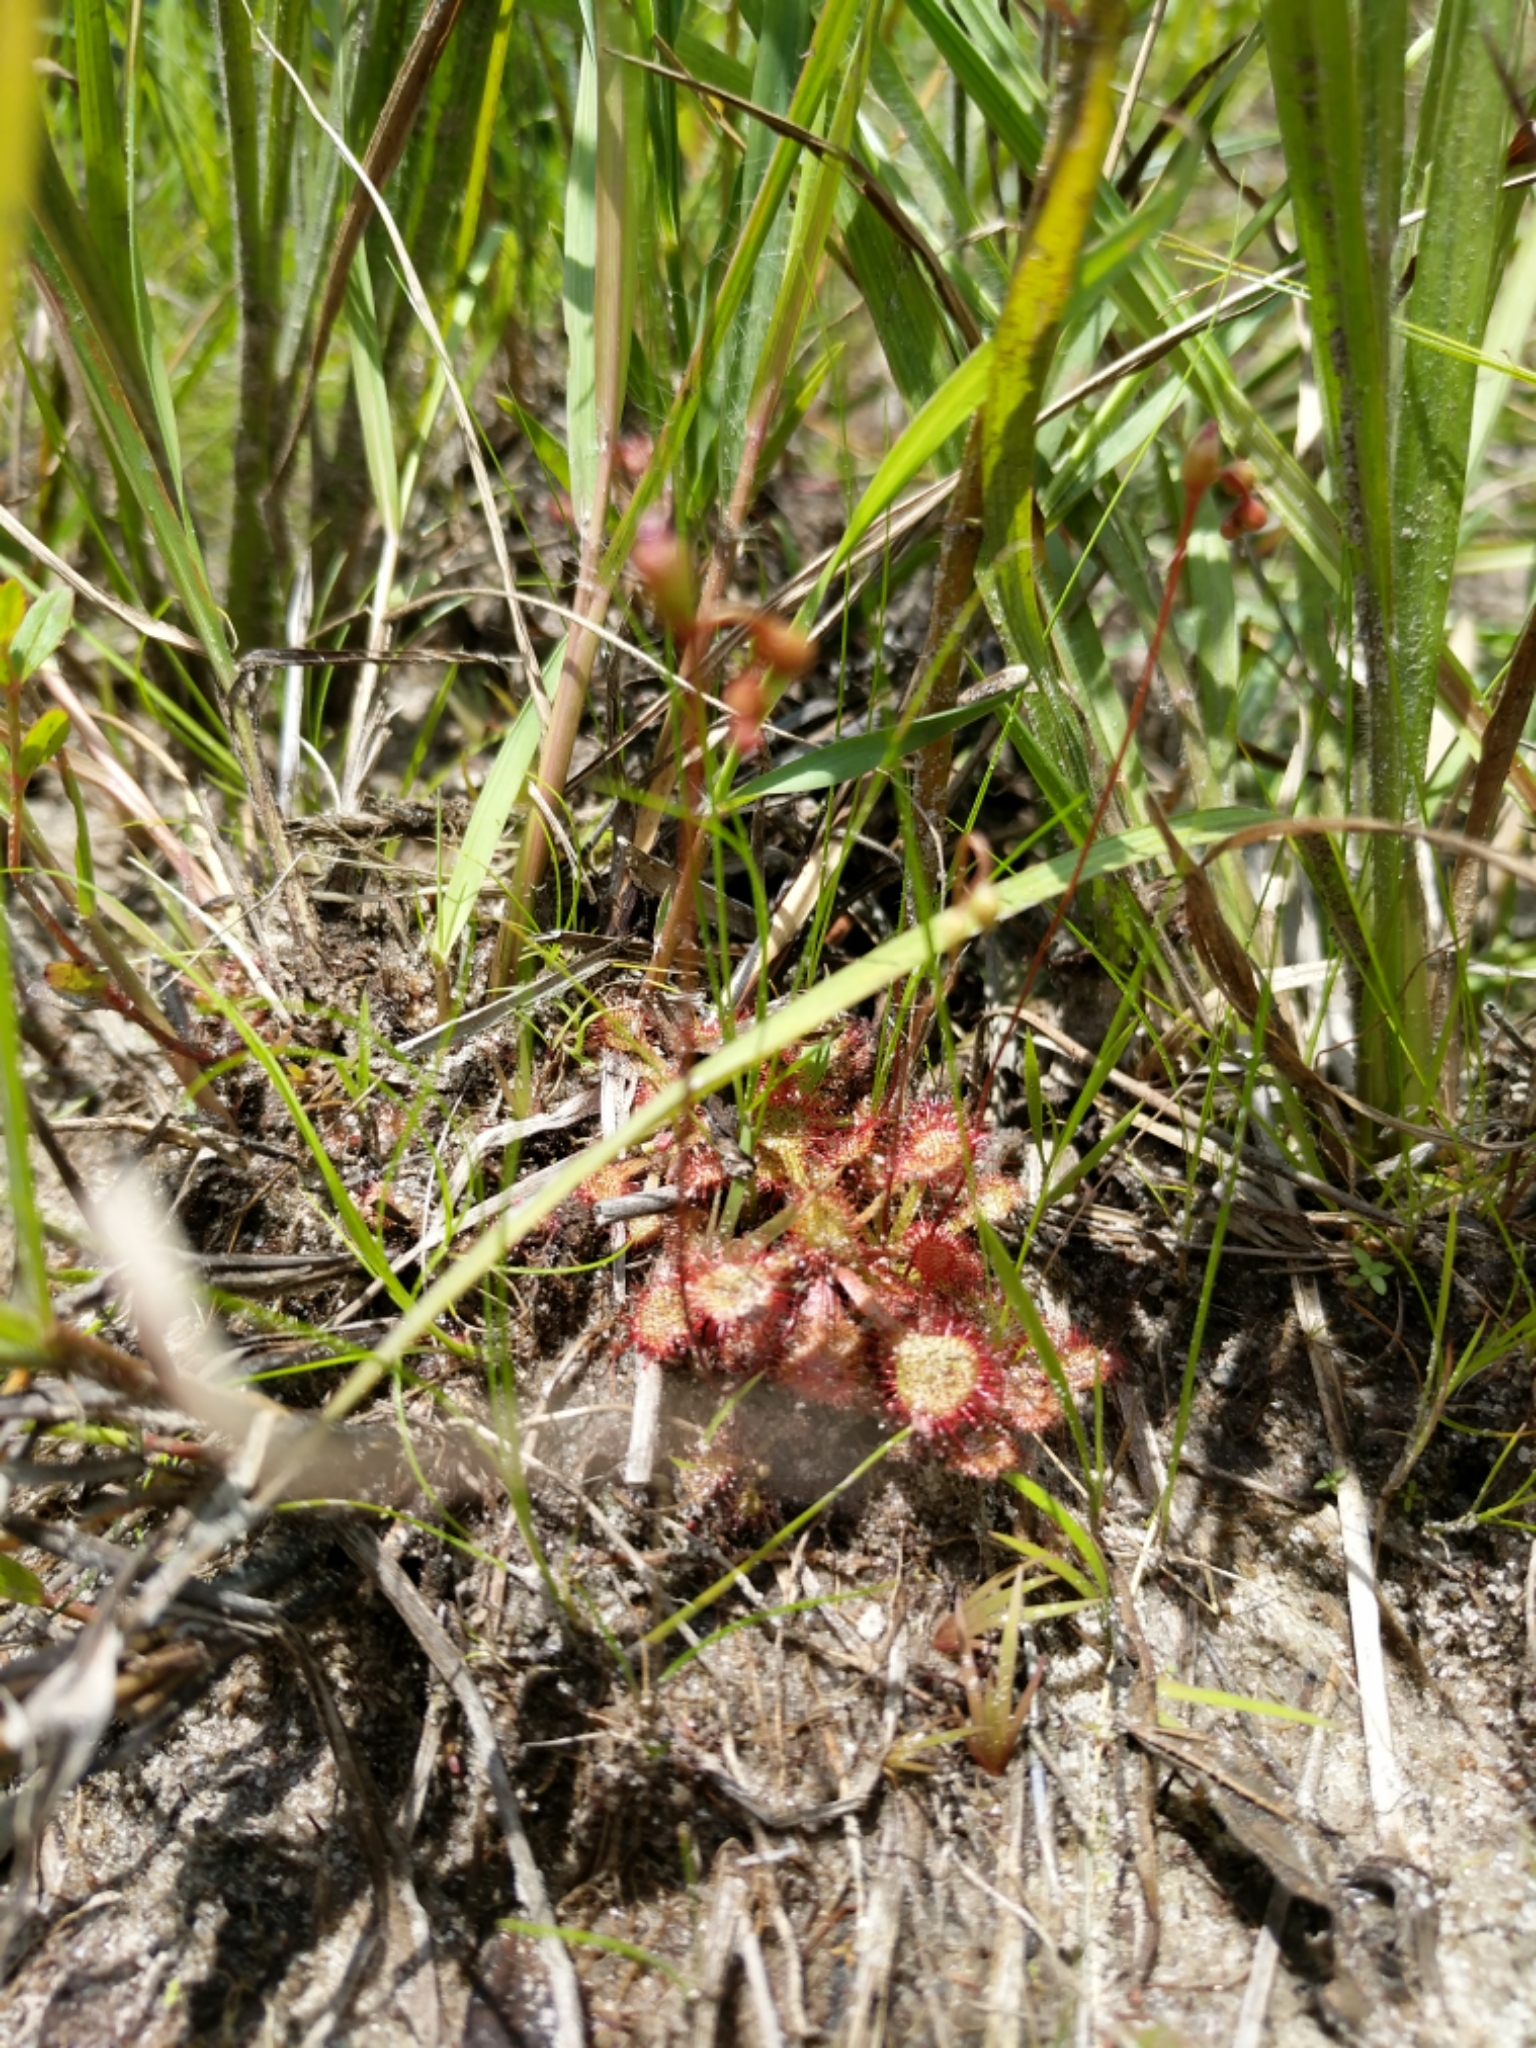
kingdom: Plantae
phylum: Tracheophyta
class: Magnoliopsida
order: Caryophyllales
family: Droseraceae
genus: Drosera
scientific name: Drosera capillaris
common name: Pink sundew
